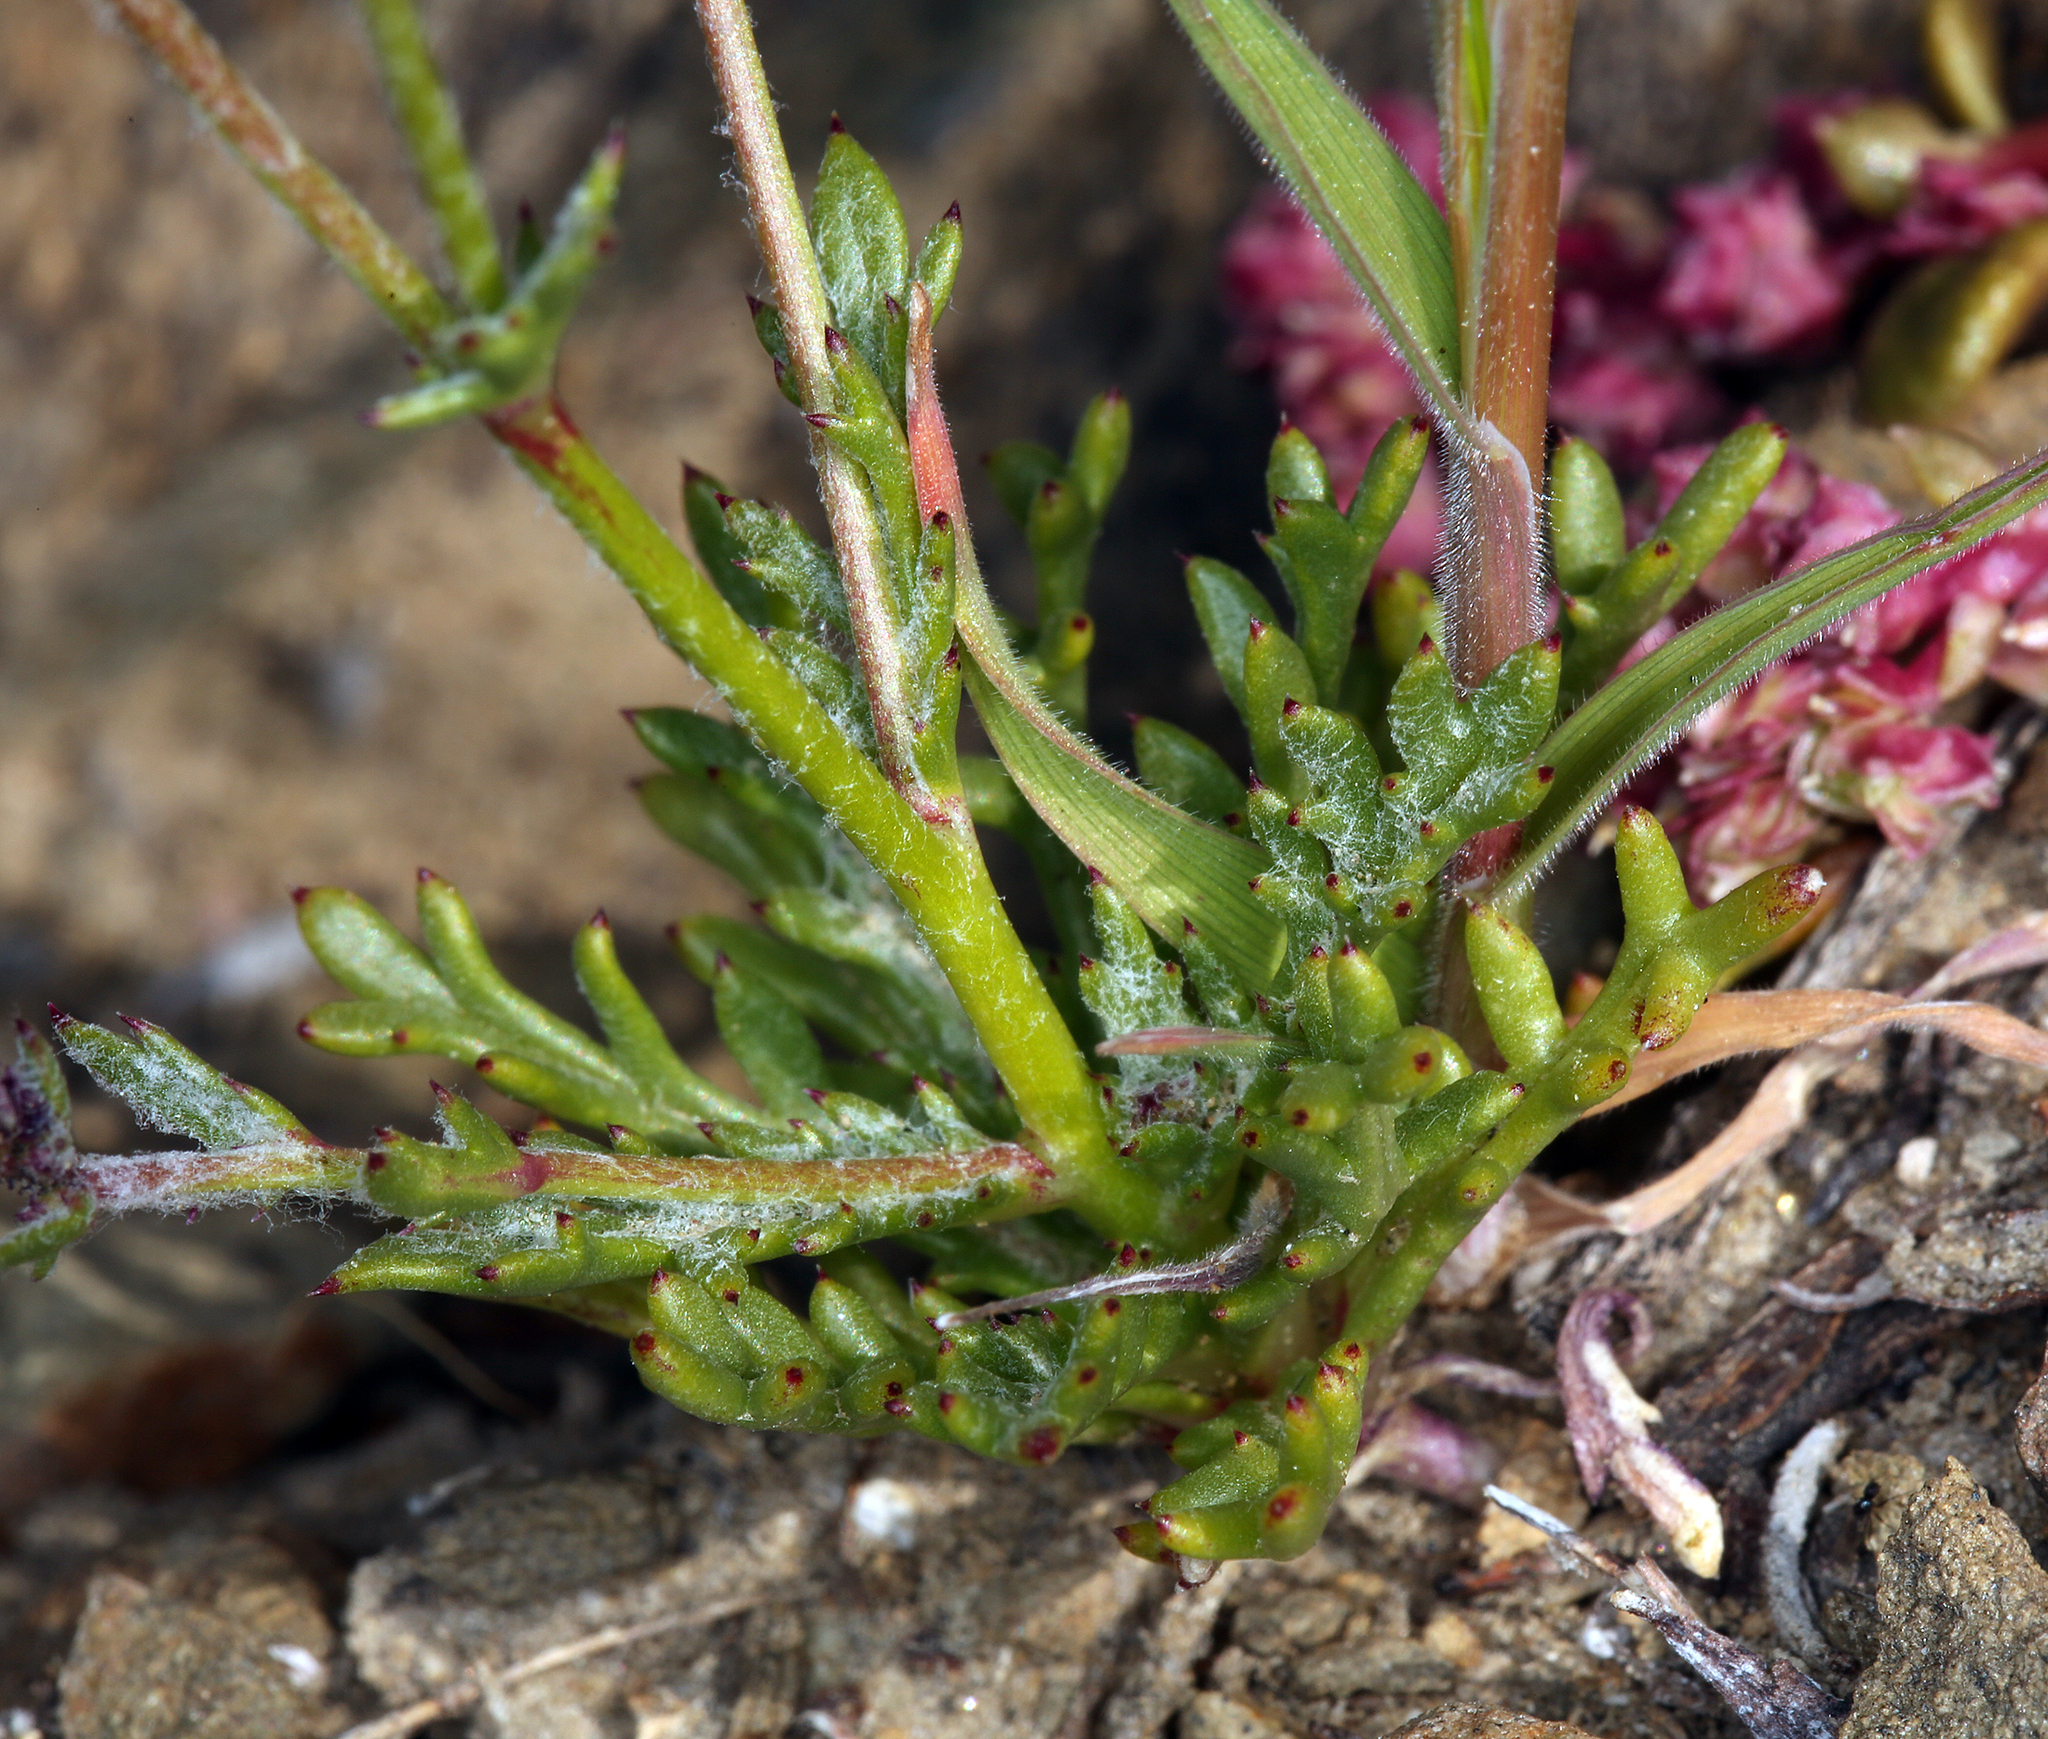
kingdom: Plantae
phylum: Tracheophyta
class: Magnoliopsida
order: Ericales
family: Polemoniaceae
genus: Gilia
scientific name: Gilia transmontana
